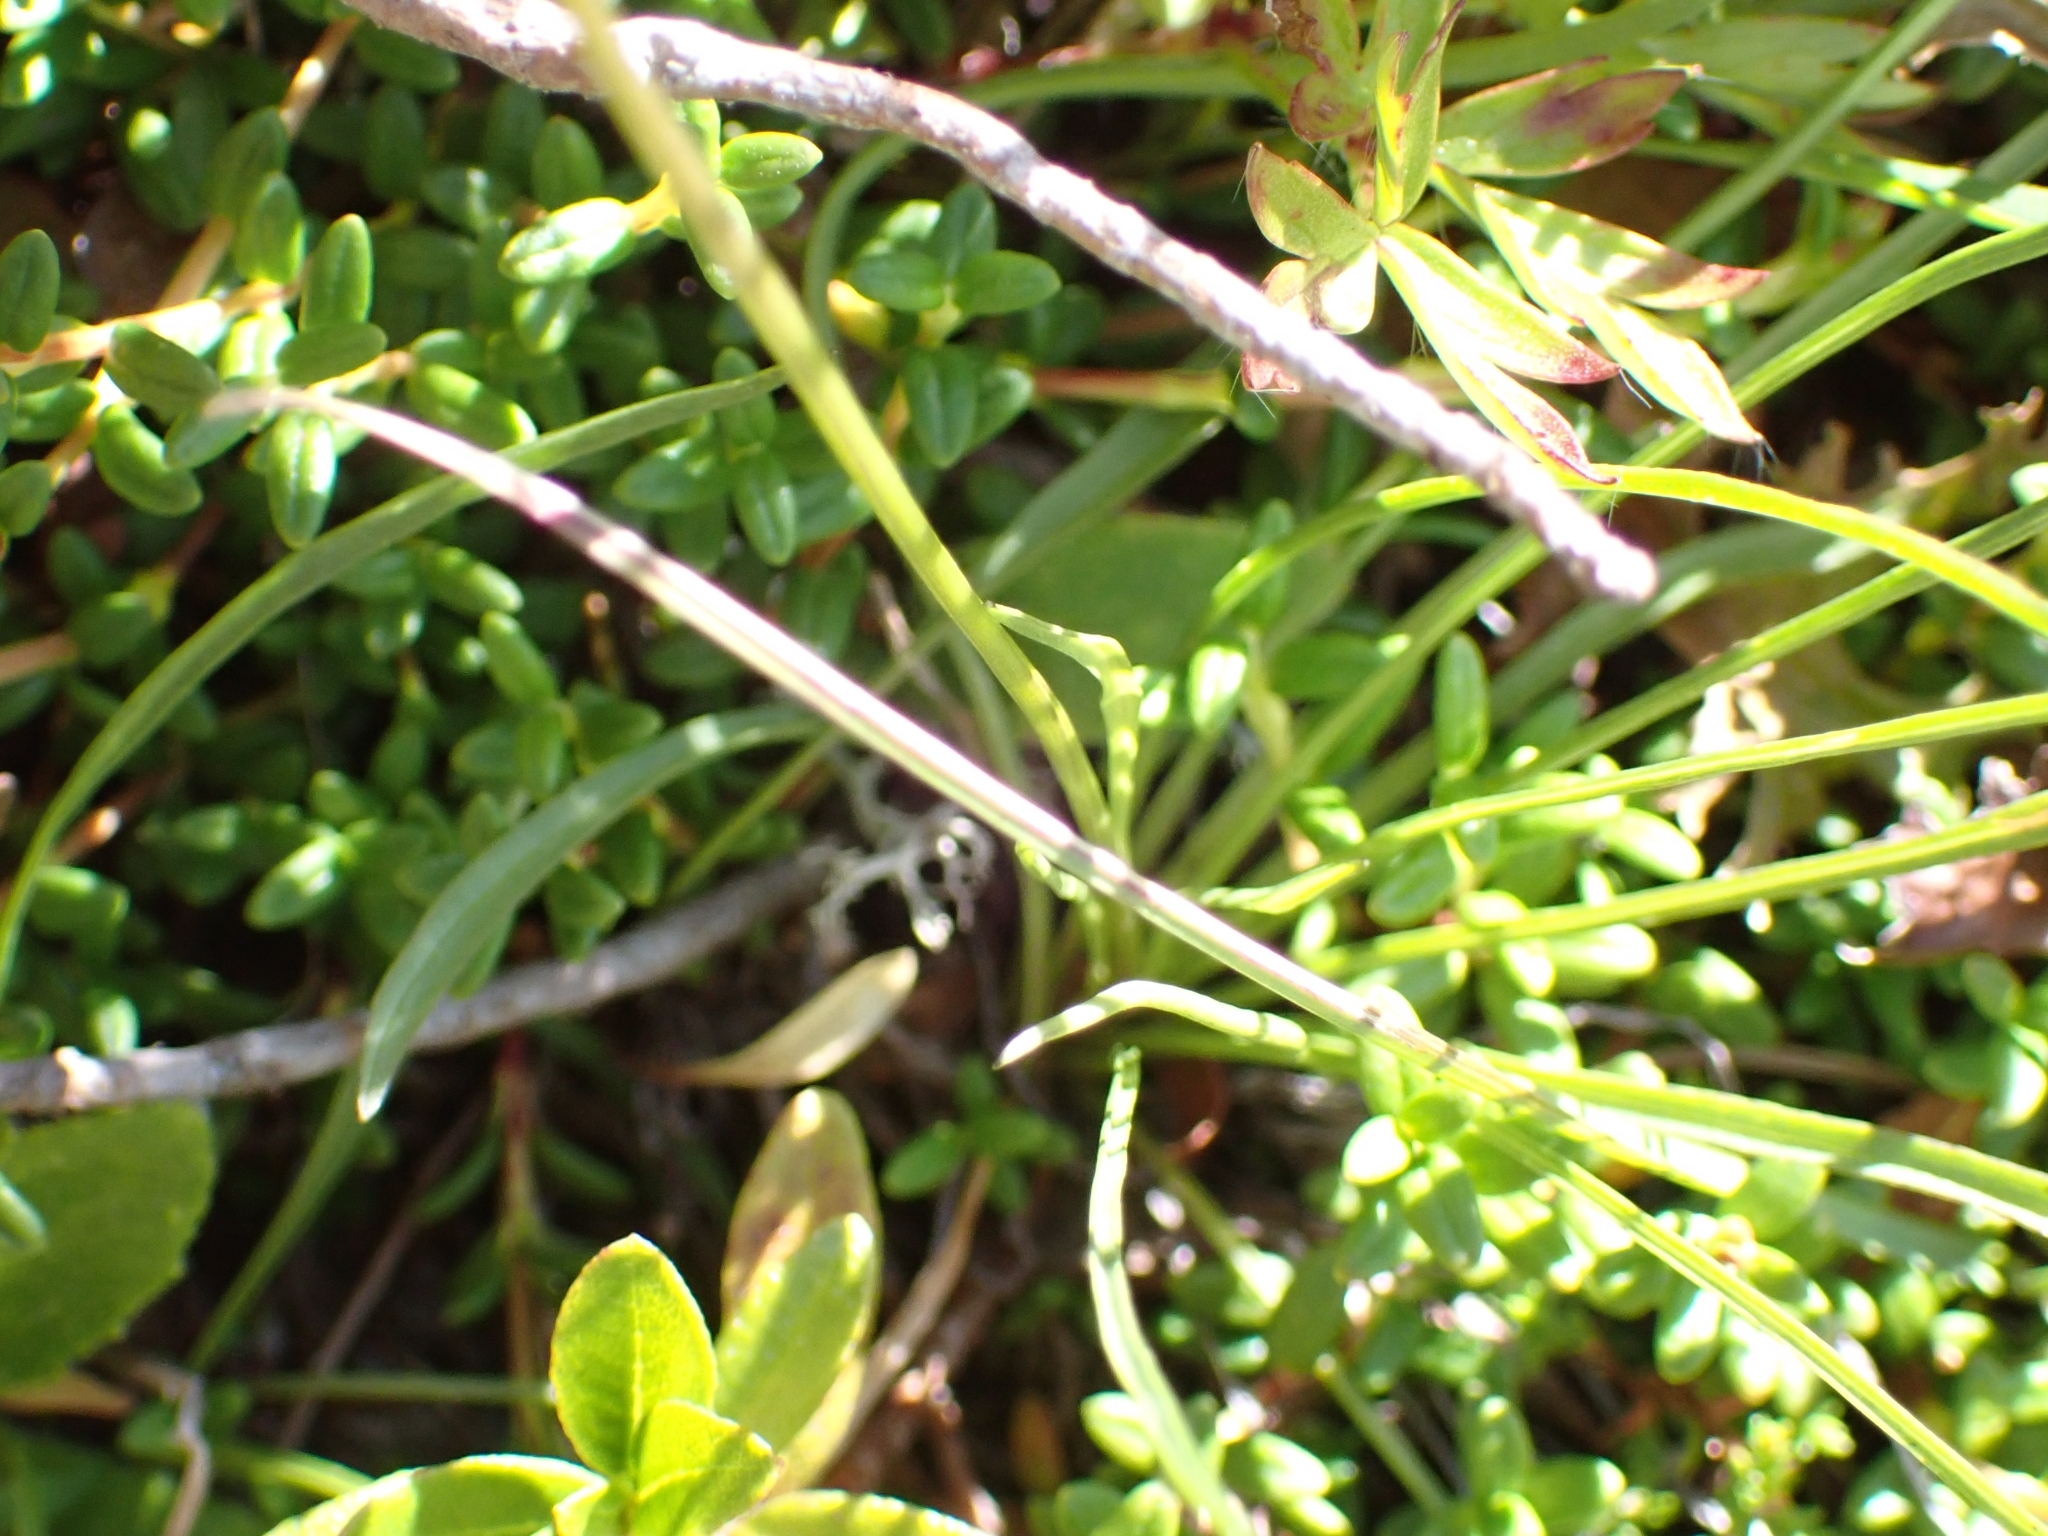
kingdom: Plantae
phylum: Tracheophyta
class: Magnoliopsida
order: Asterales
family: Campanulaceae
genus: Phyteuma
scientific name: Phyteuma hemisphaericum
